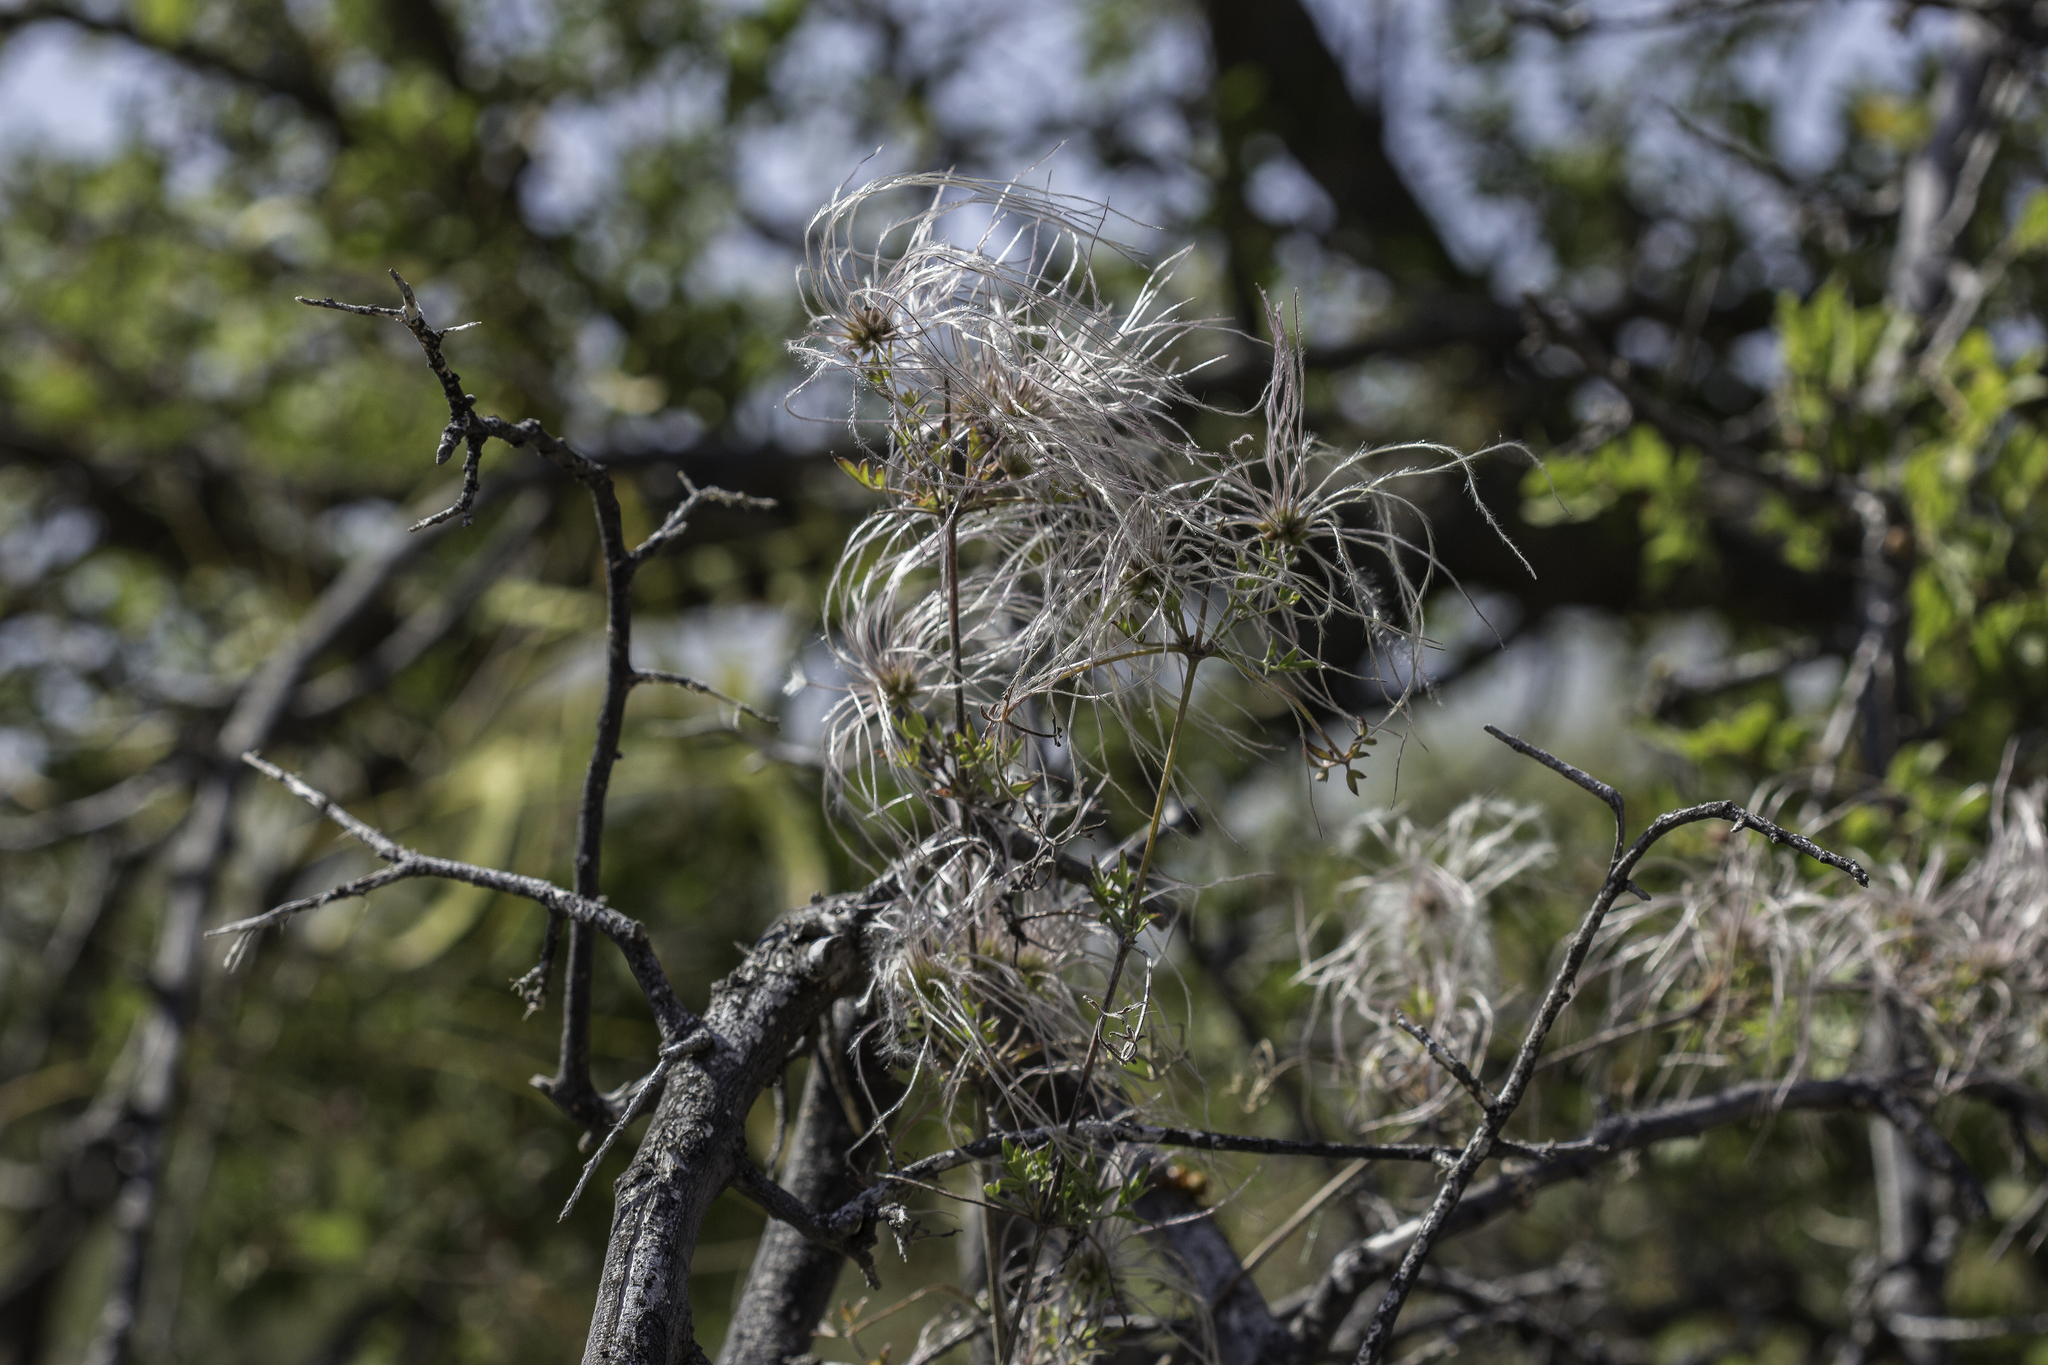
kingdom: Plantae
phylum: Tracheophyta
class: Magnoliopsida
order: Ranunculales
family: Ranunculaceae
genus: Clematis
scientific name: Clematis drummondii
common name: Texas virgin's bower
